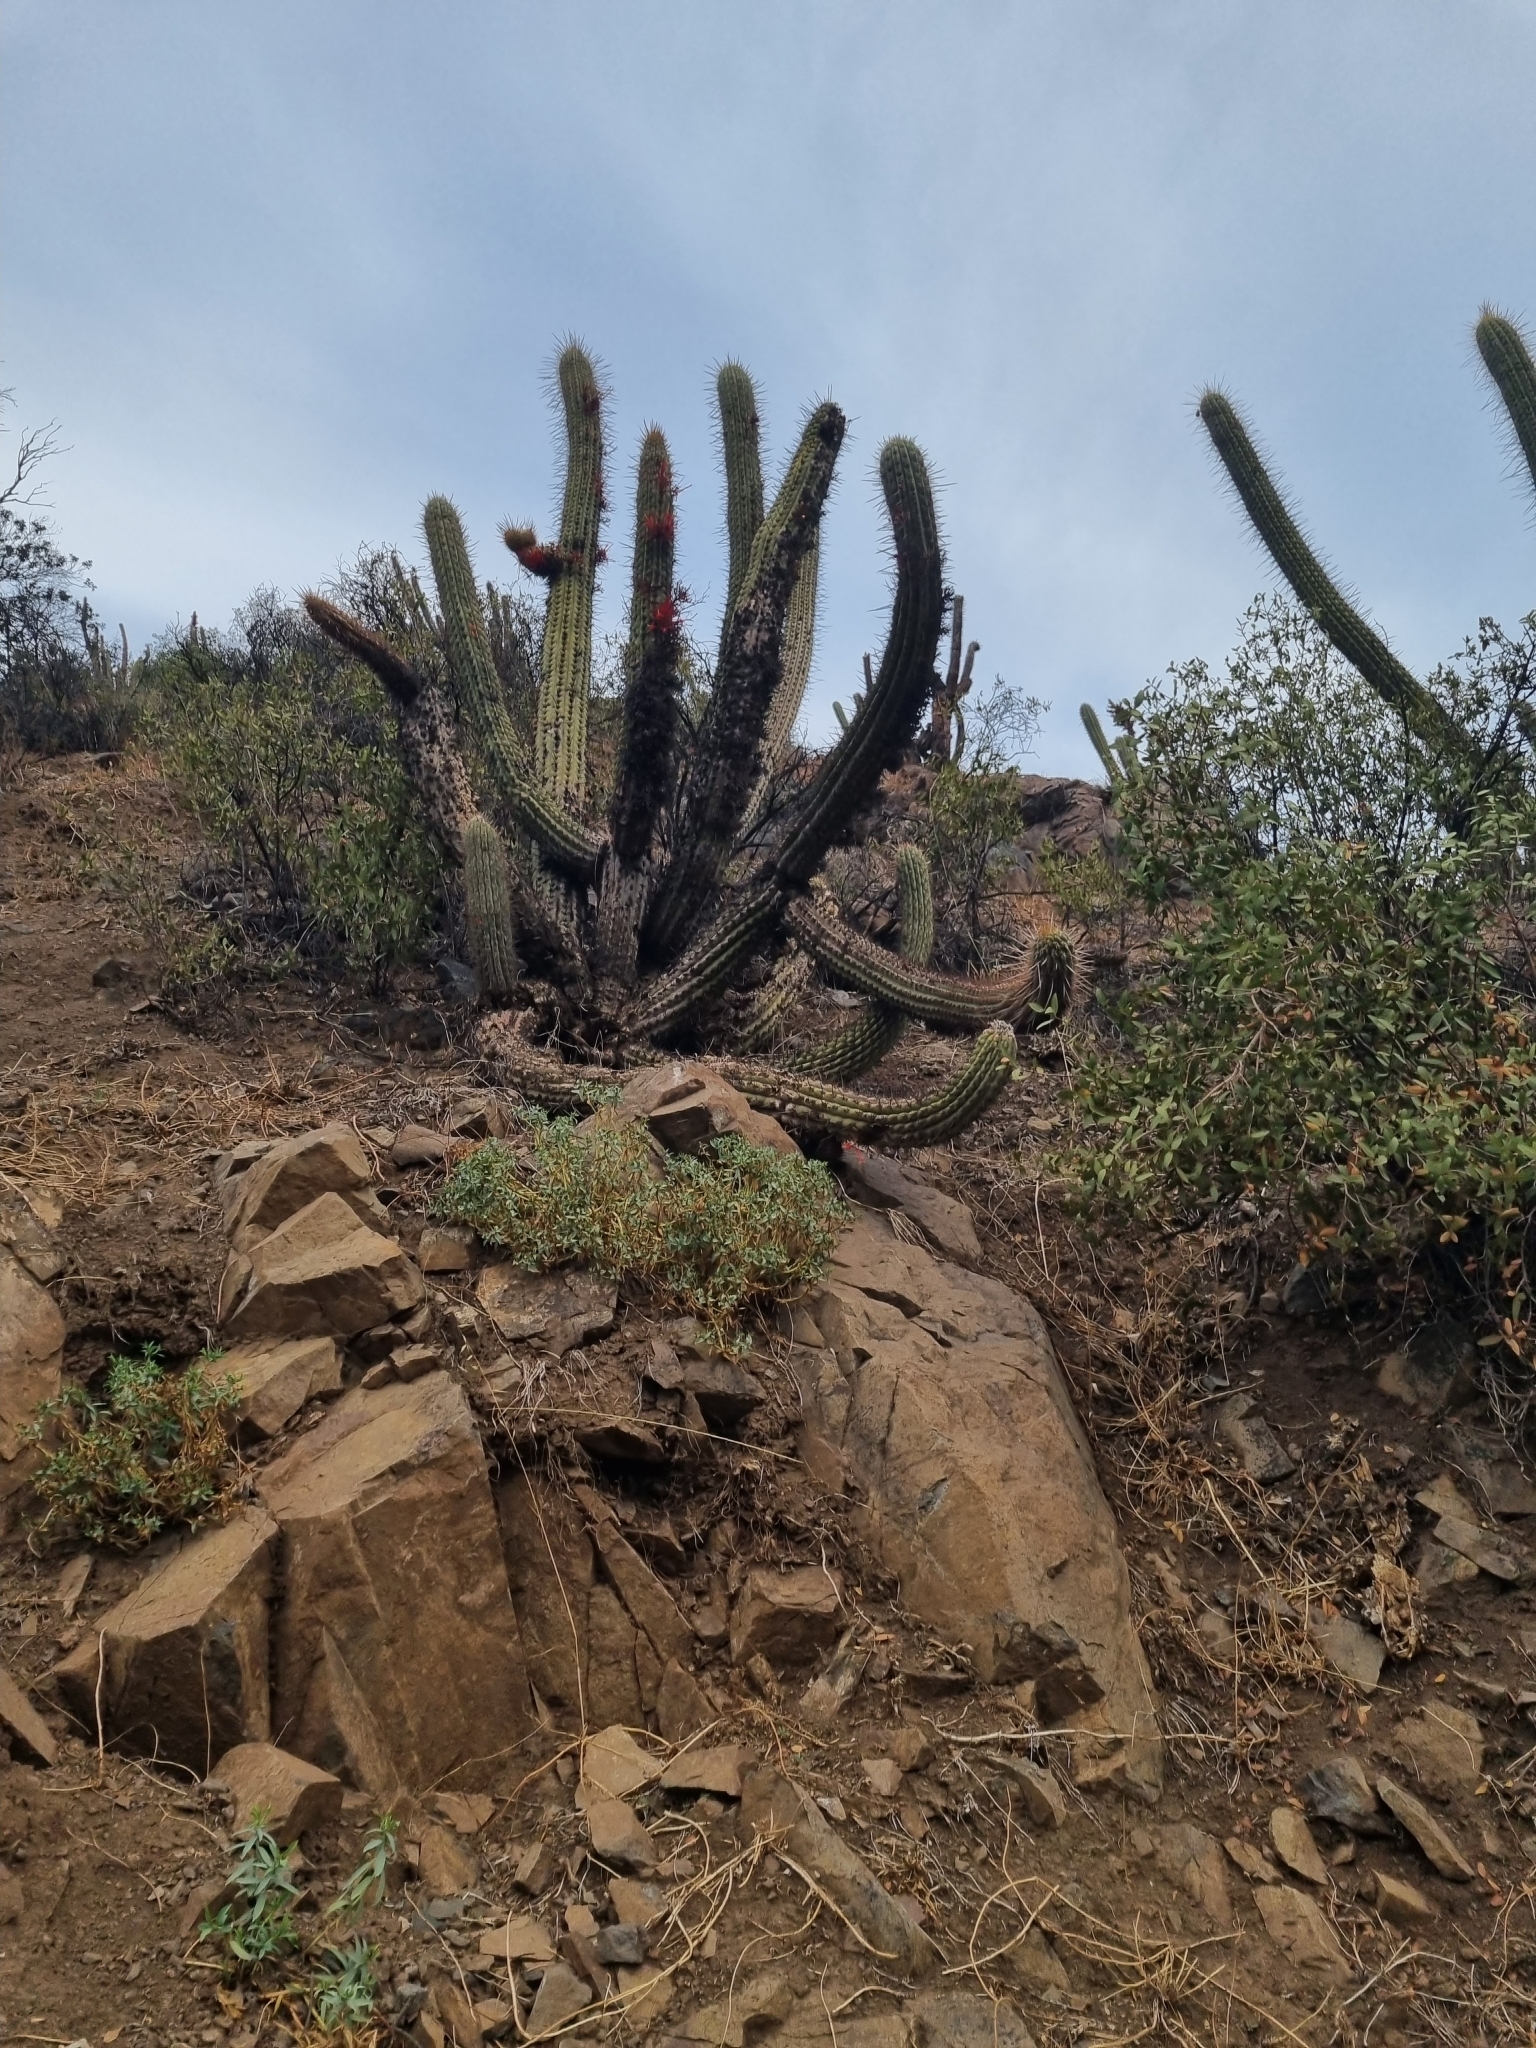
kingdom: Plantae
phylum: Tracheophyta
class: Magnoliopsida
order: Caryophyllales
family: Cactaceae
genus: Leucostele
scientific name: Leucostele chiloensis
